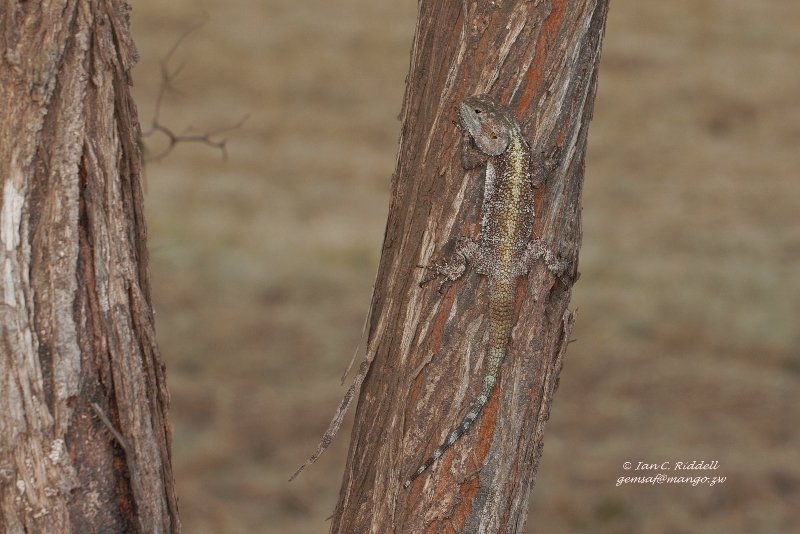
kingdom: Animalia
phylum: Chordata
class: Squamata
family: Agamidae
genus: Acanthocercus
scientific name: Acanthocercus
